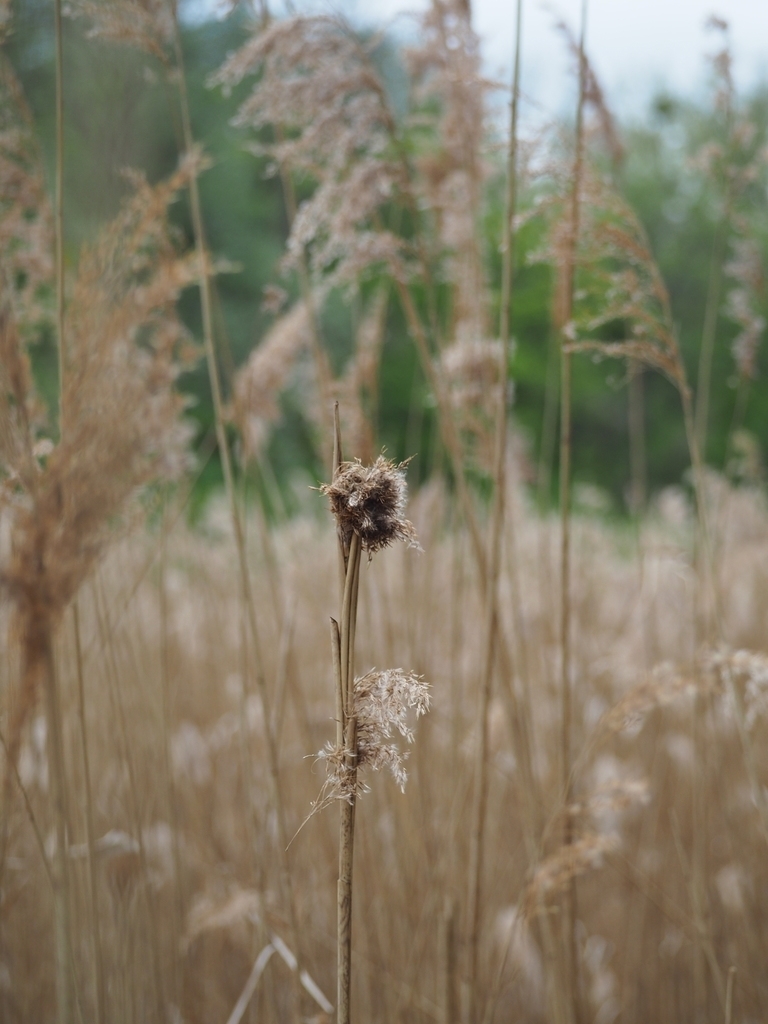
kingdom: Plantae
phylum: Tracheophyta
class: Liliopsida
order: Poales
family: Poaceae
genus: Phragmites
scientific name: Phragmites australis
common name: Common reed
